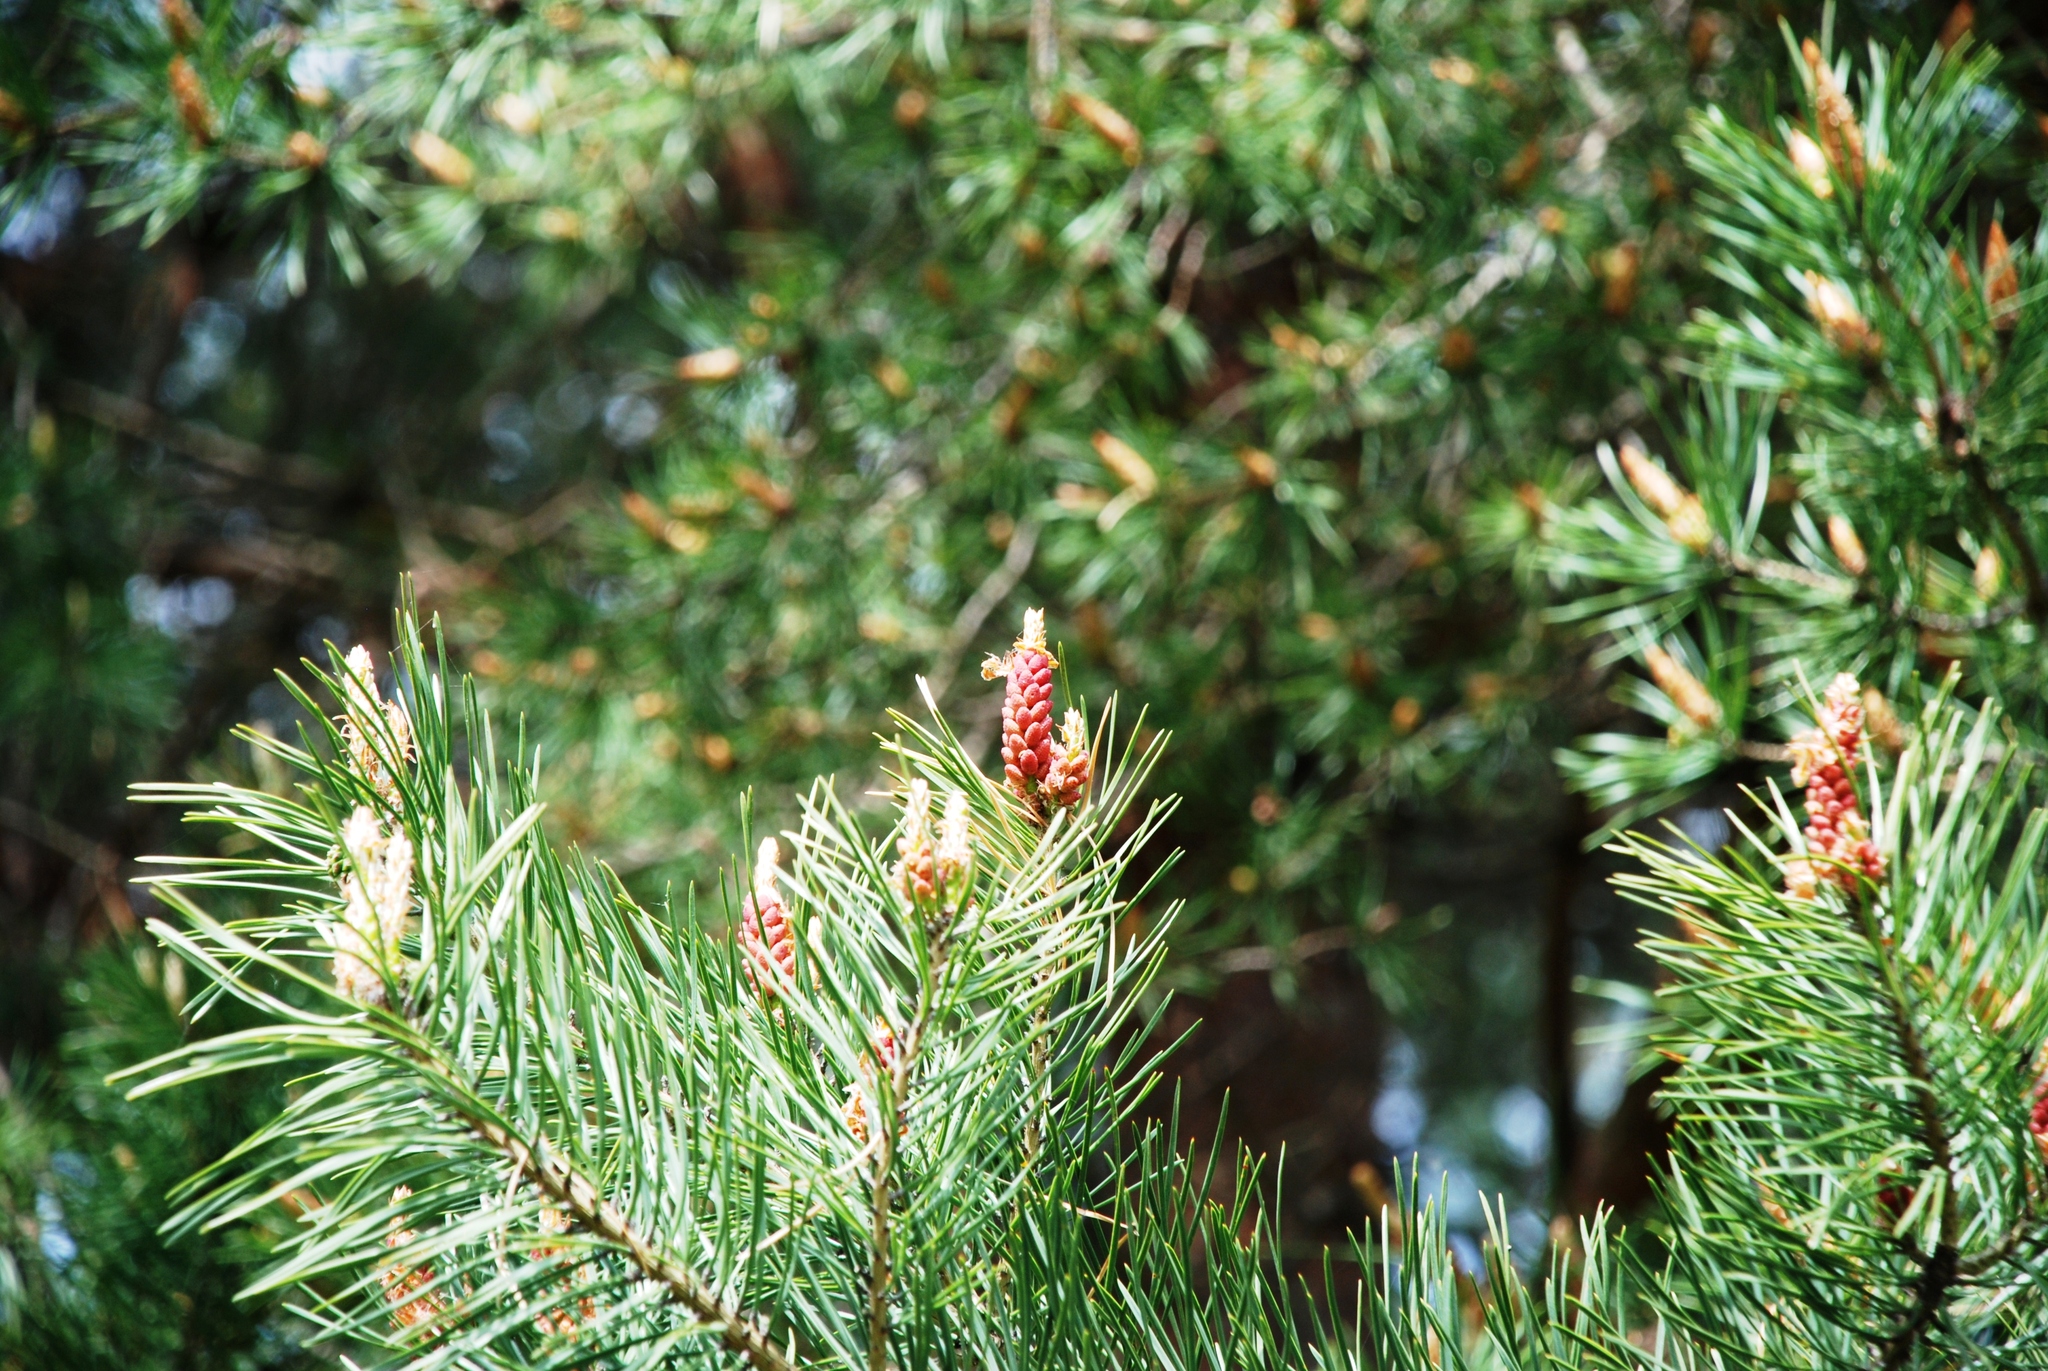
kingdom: Plantae
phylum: Tracheophyta
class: Pinopsida
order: Pinales
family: Pinaceae
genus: Pinus
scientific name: Pinus sylvestris
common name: Scots pine
